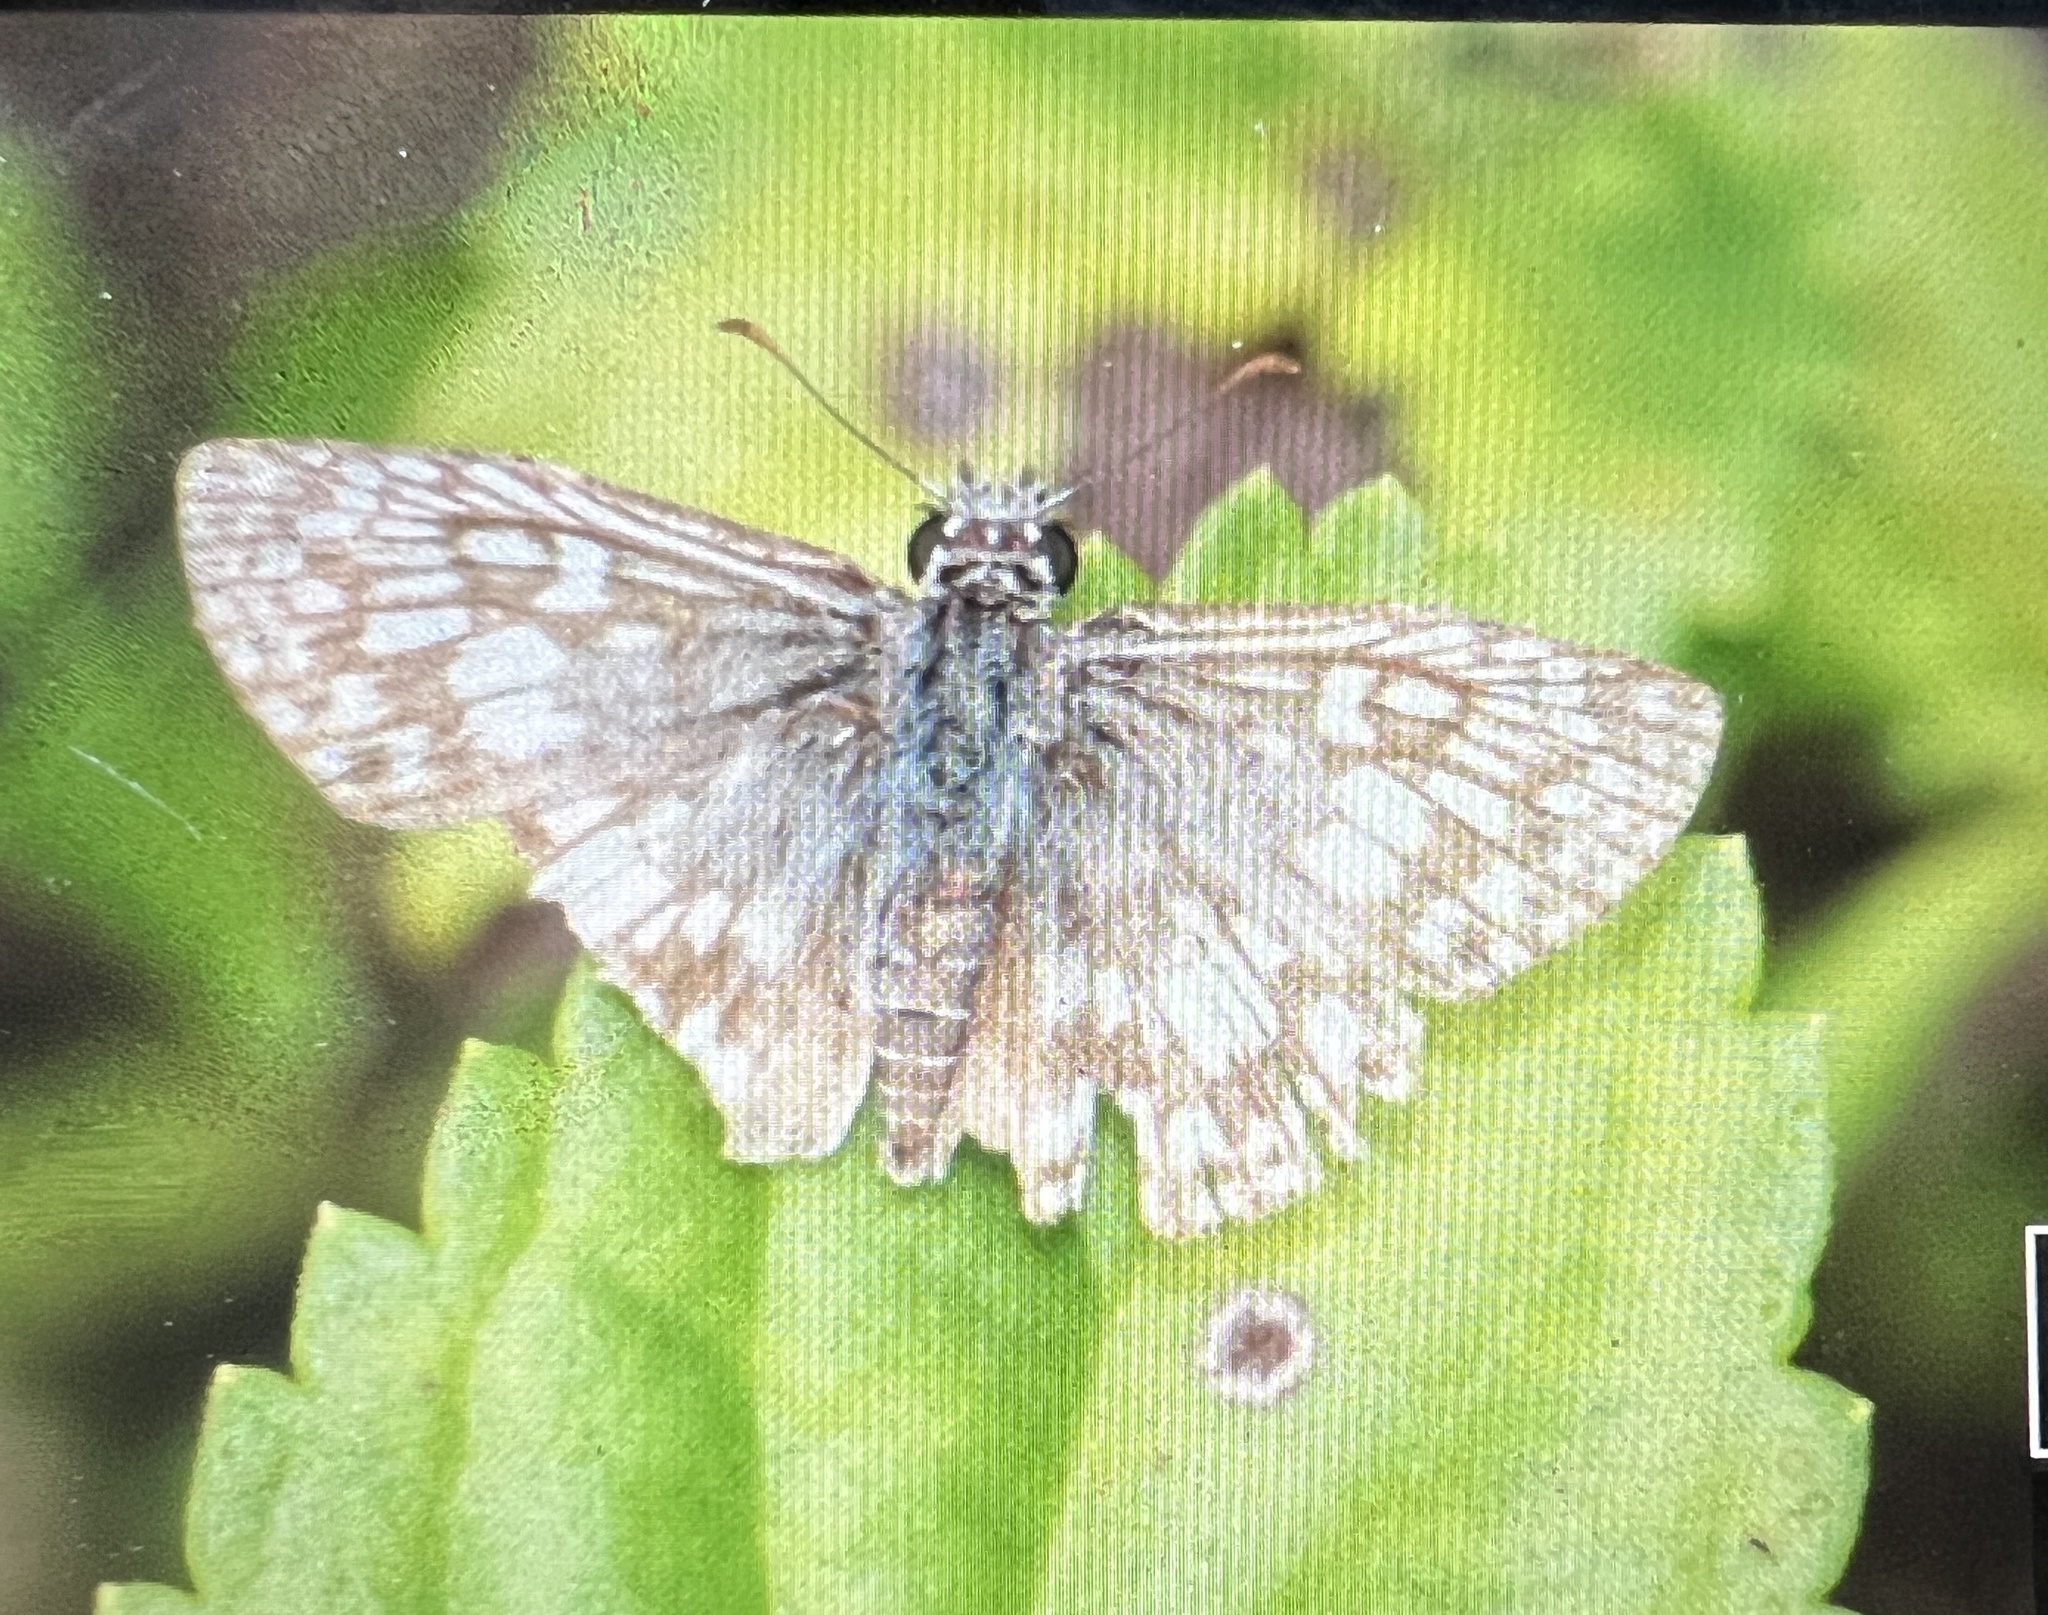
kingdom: Animalia
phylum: Arthropoda
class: Insecta
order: Lepidoptera
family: Hesperiidae
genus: Pyrgus
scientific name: Pyrgus oileus
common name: Tropical checkered-skipper
